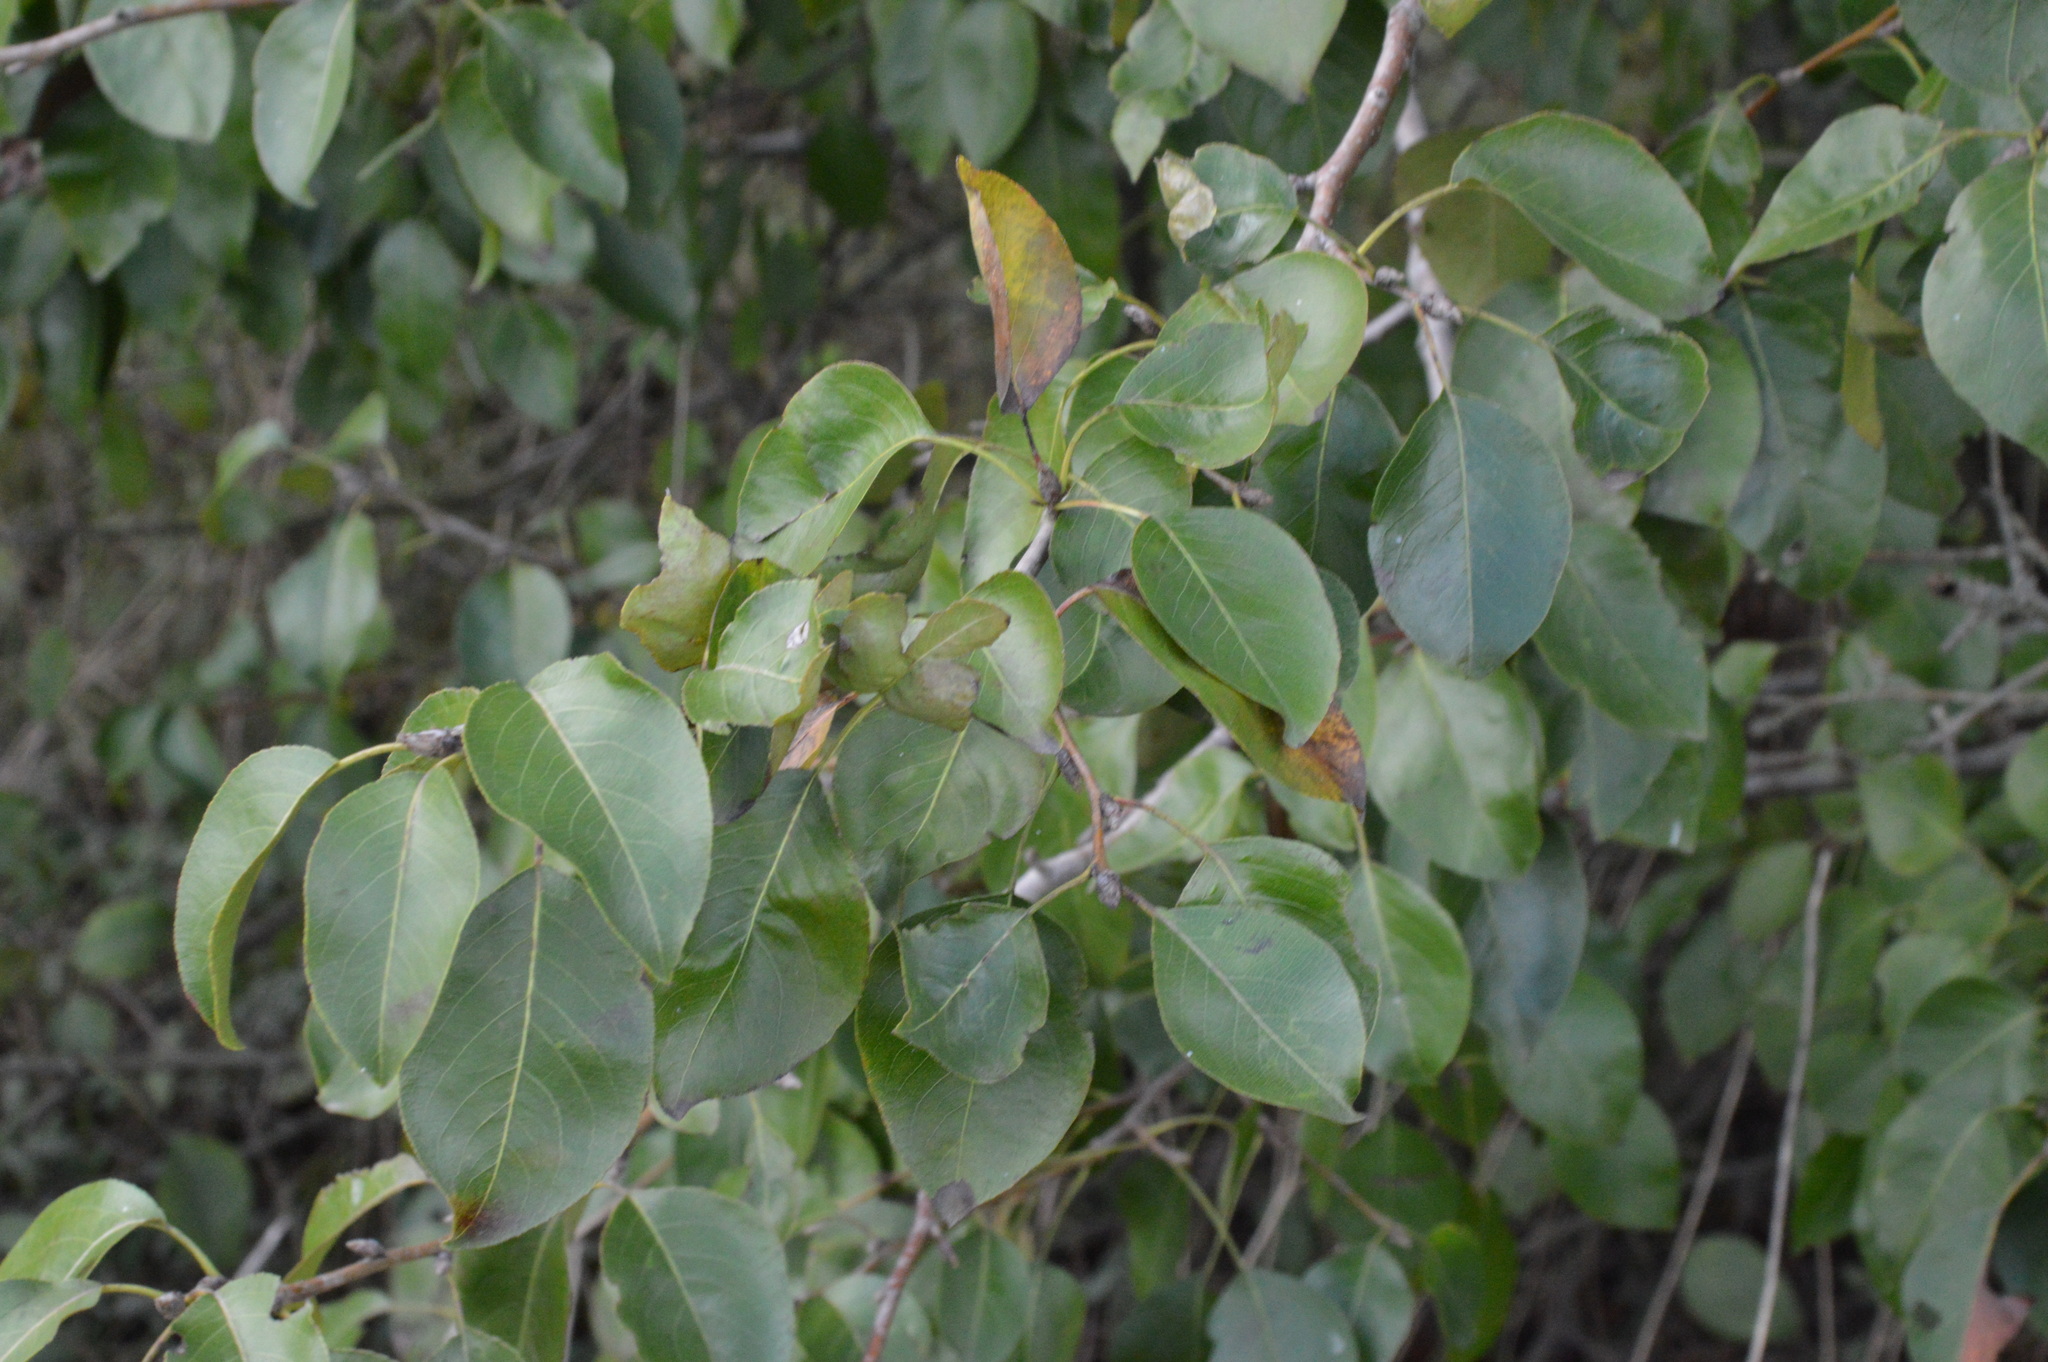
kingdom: Plantae
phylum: Tracheophyta
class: Magnoliopsida
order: Rosales
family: Rosaceae
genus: Pyrus
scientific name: Pyrus calleryana
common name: Callery pear
